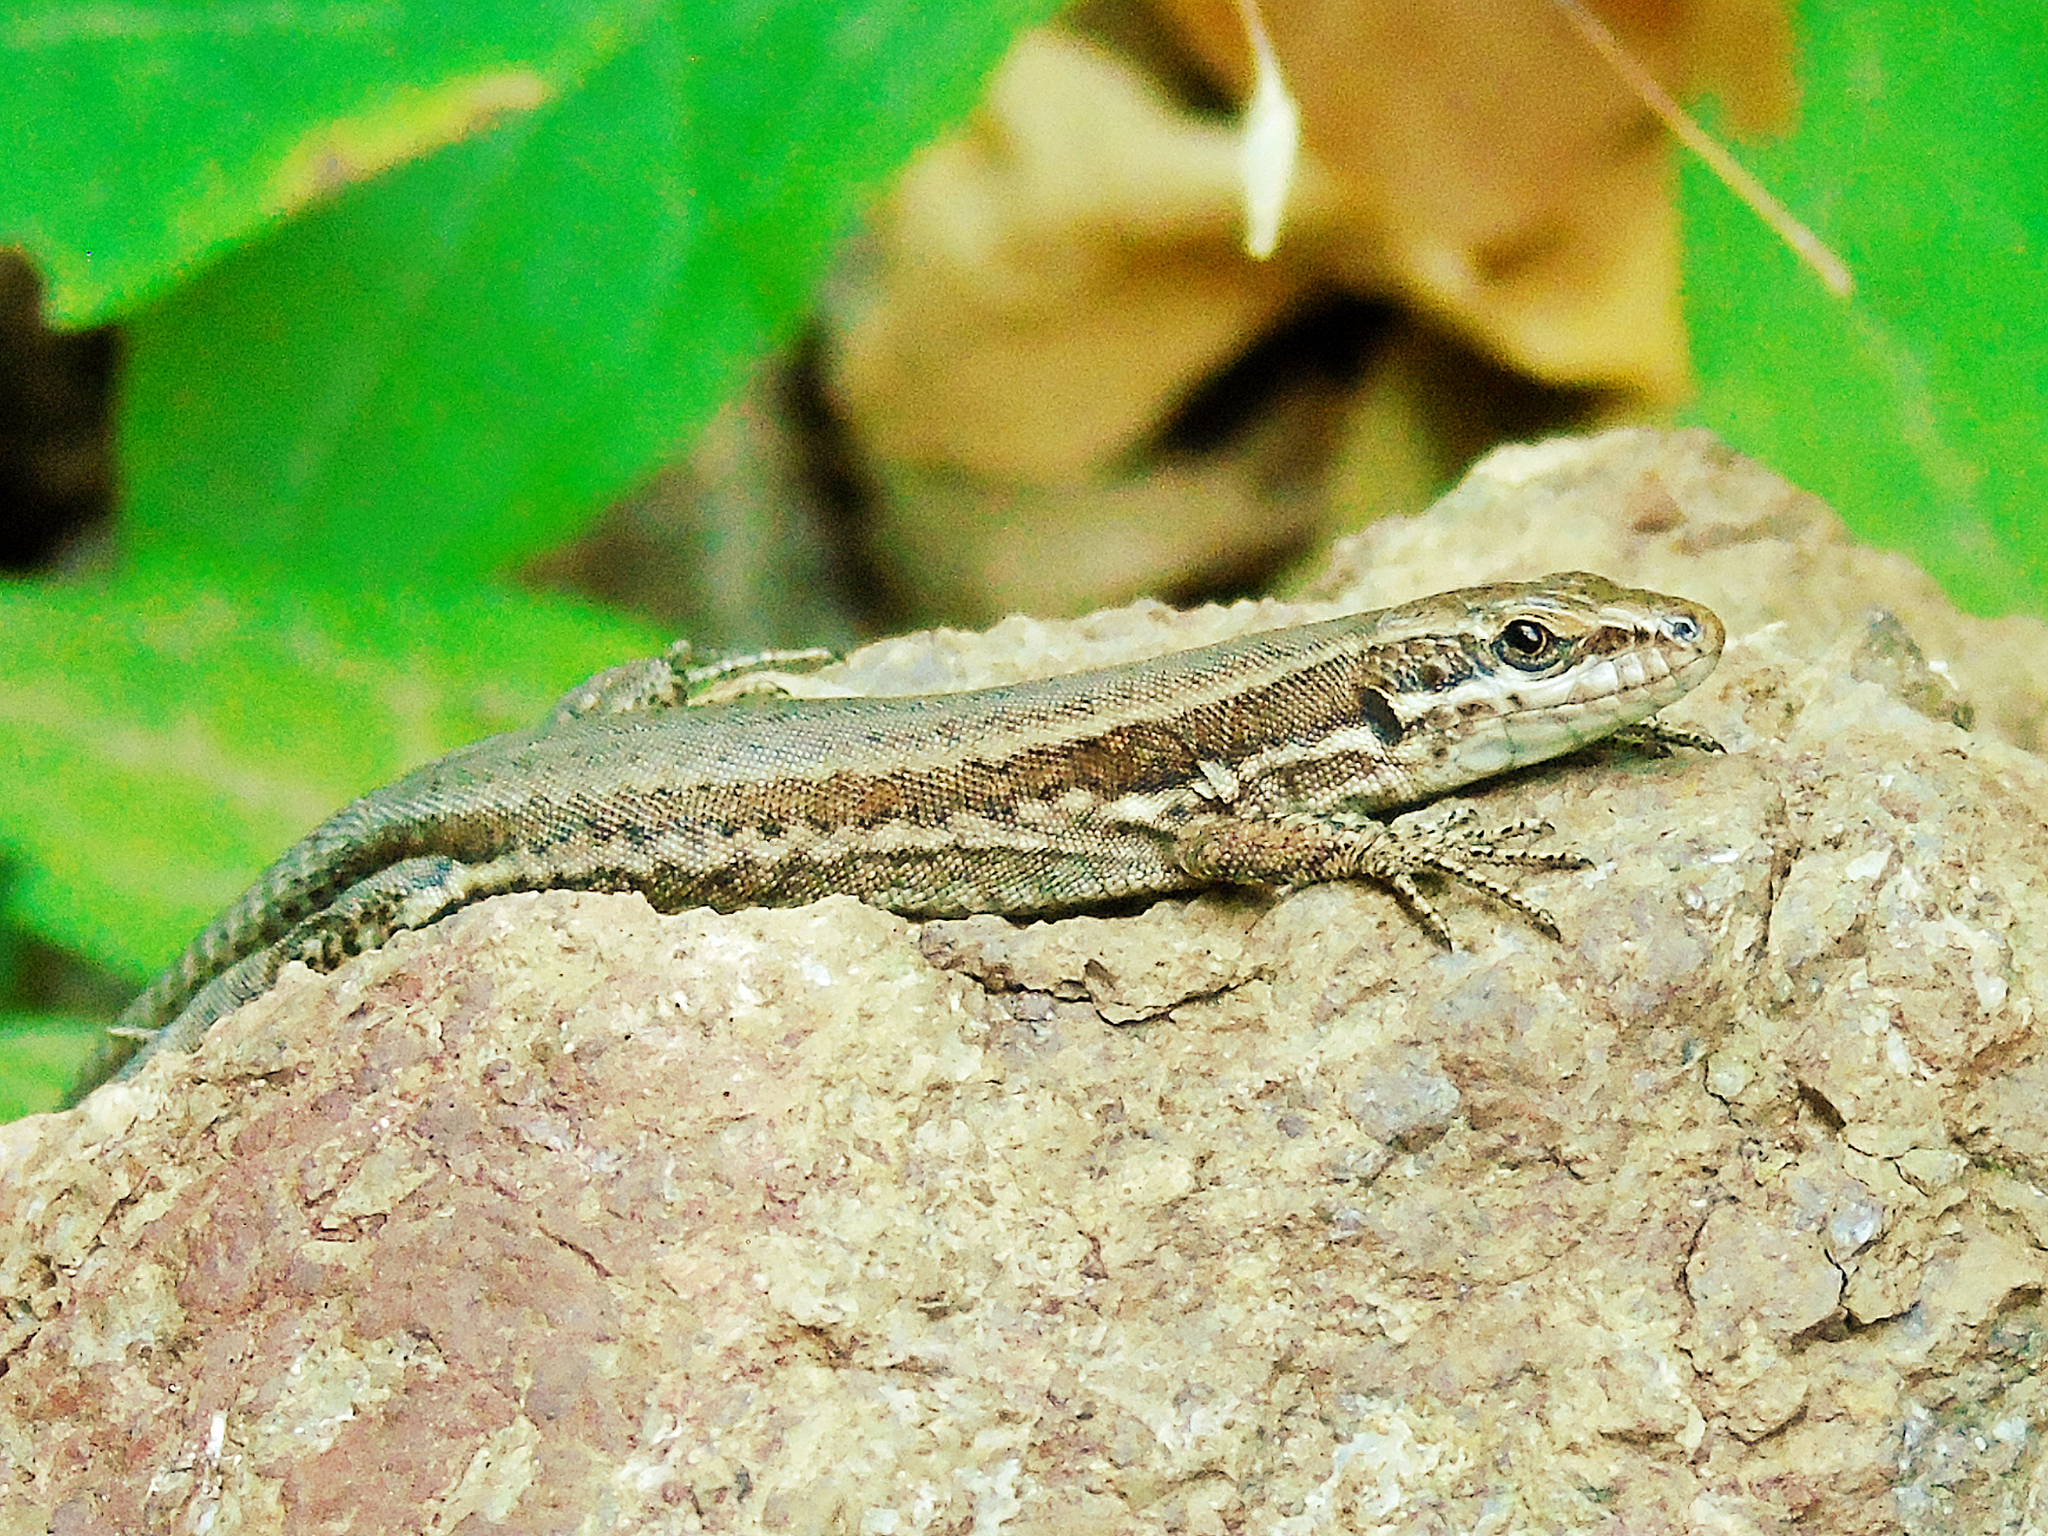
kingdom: Animalia
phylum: Chordata
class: Squamata
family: Lacertidae
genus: Podarcis
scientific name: Podarcis muralis
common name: Common wall lizard
